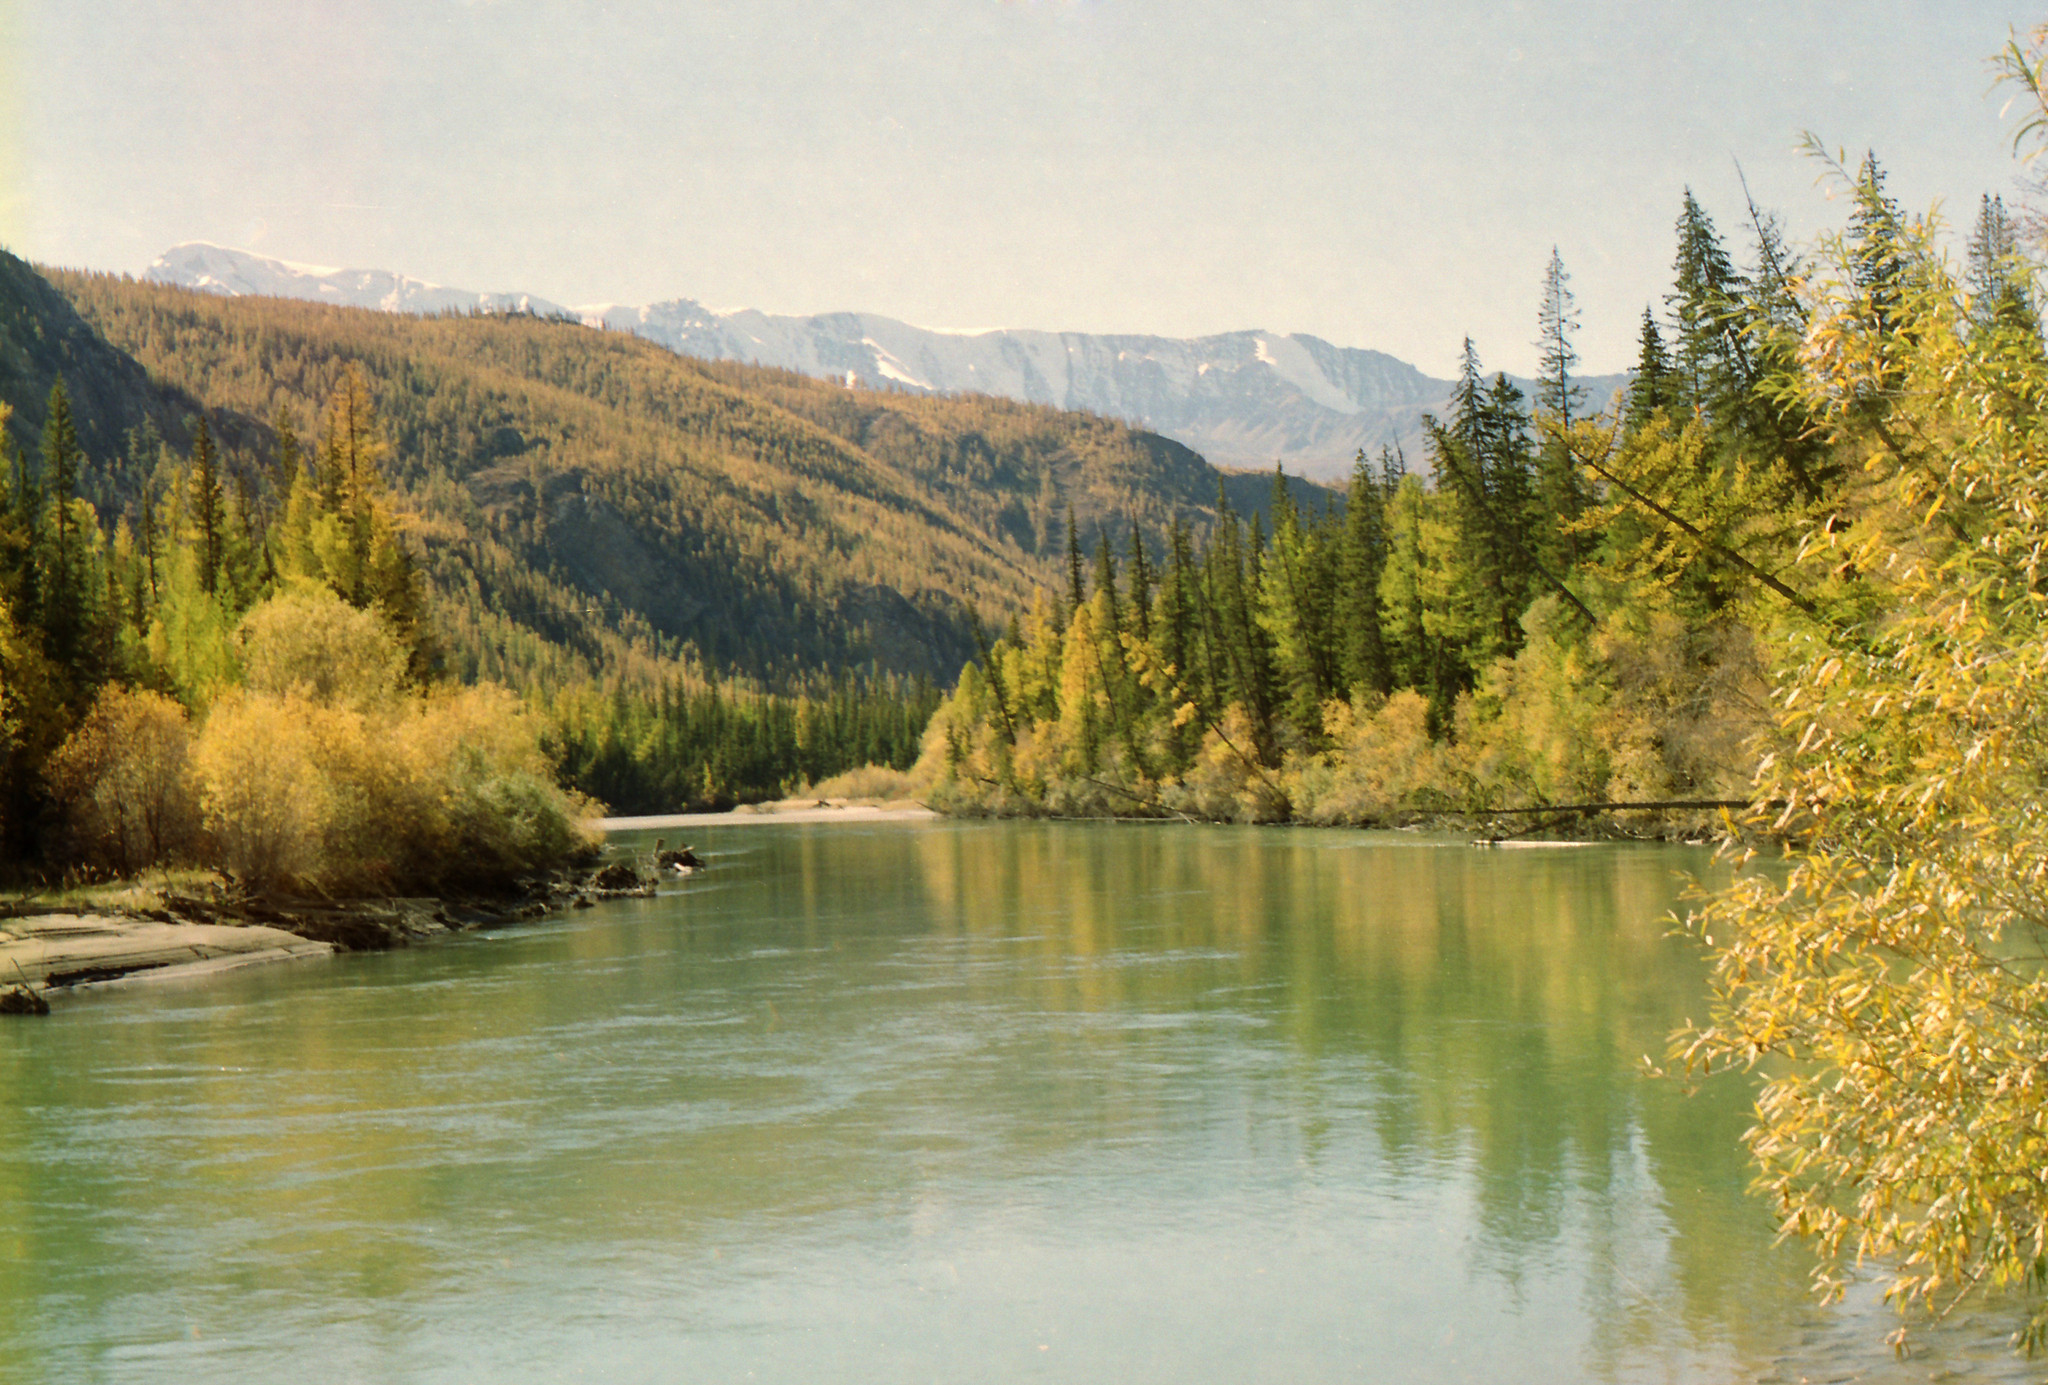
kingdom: Plantae
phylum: Tracheophyta
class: Pinopsida
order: Pinales
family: Pinaceae
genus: Picea
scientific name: Picea obovata
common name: Siberian spruce
